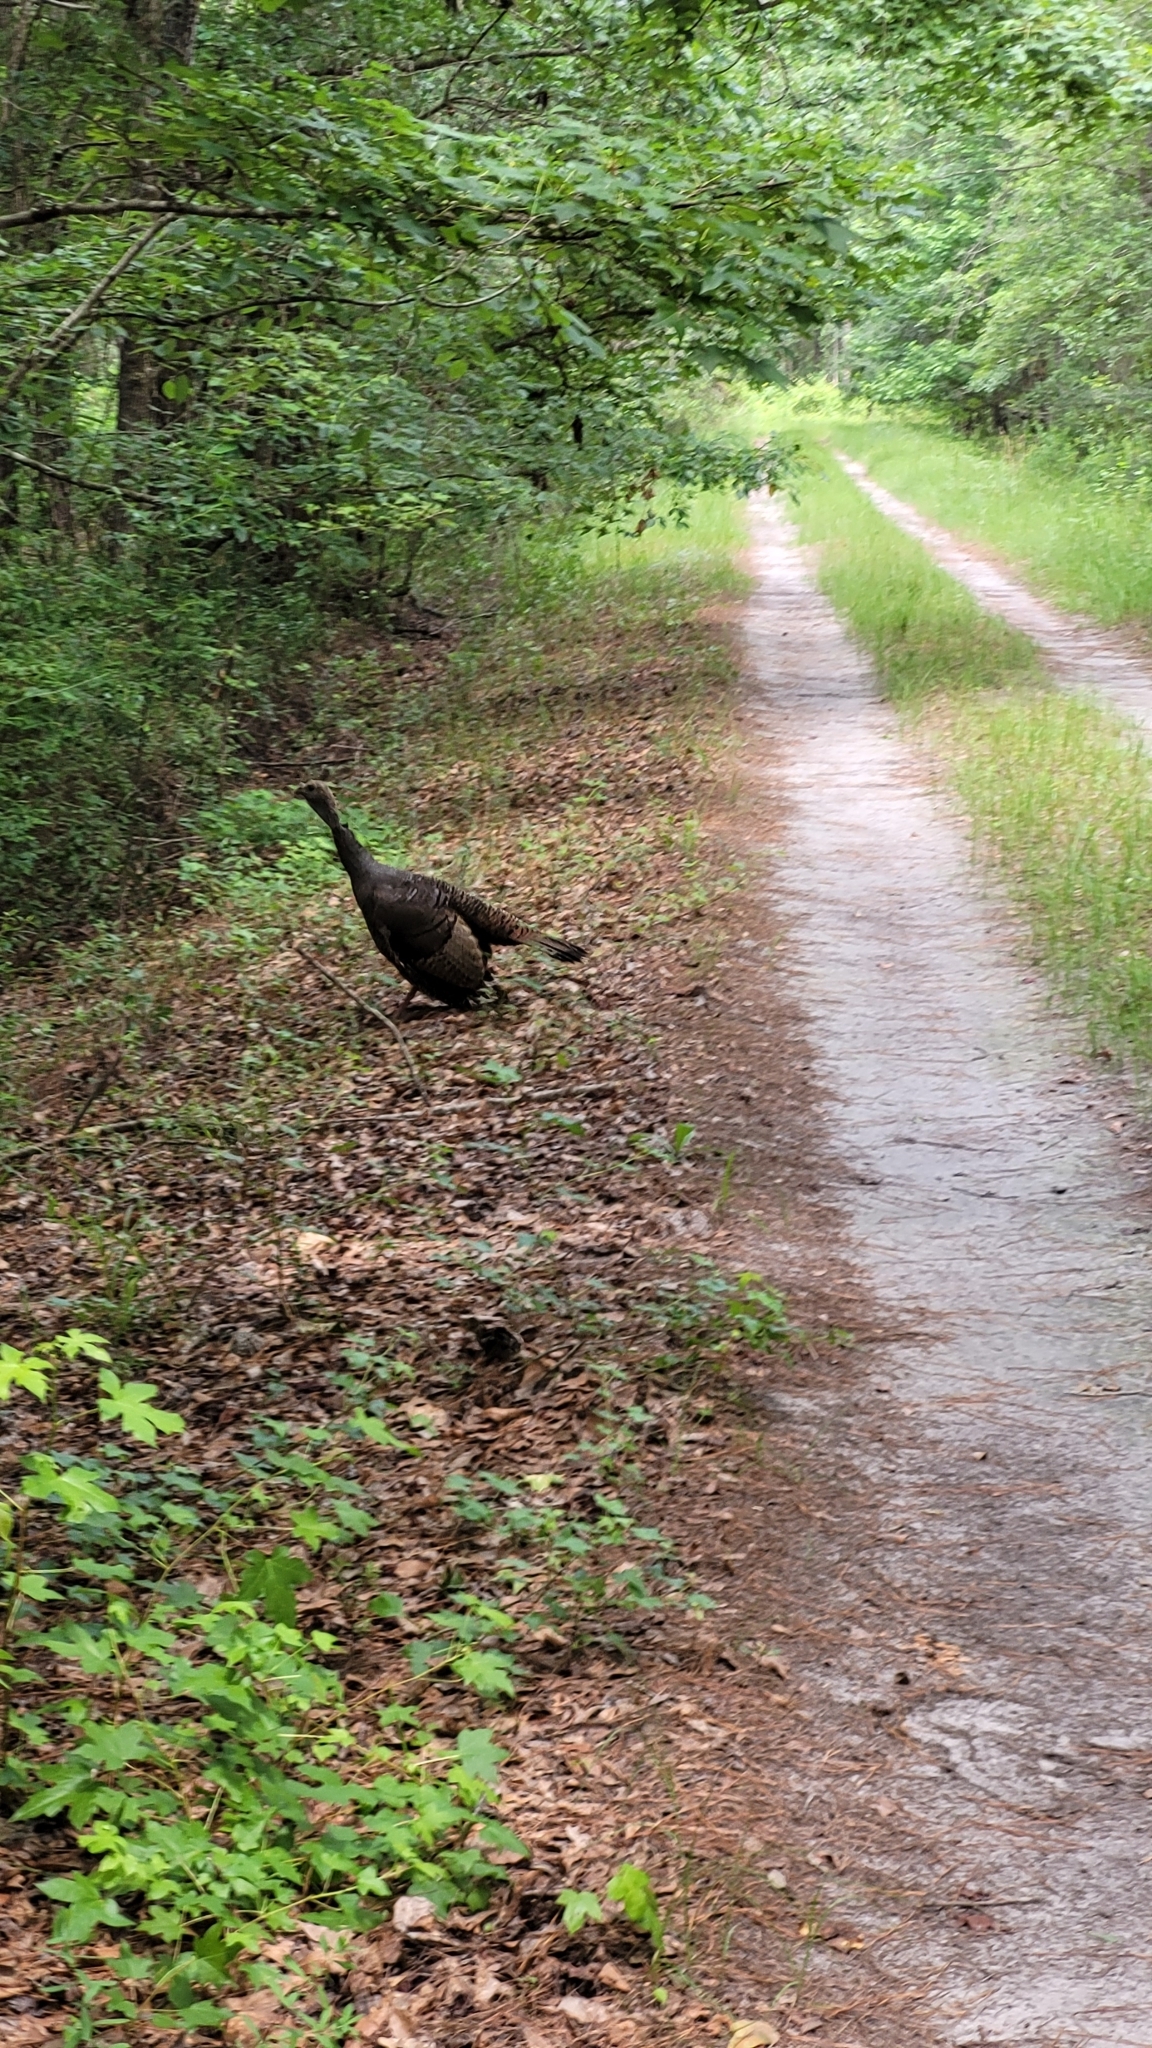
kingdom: Animalia
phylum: Chordata
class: Aves
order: Galliformes
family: Phasianidae
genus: Meleagris
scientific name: Meleagris gallopavo
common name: Wild turkey
